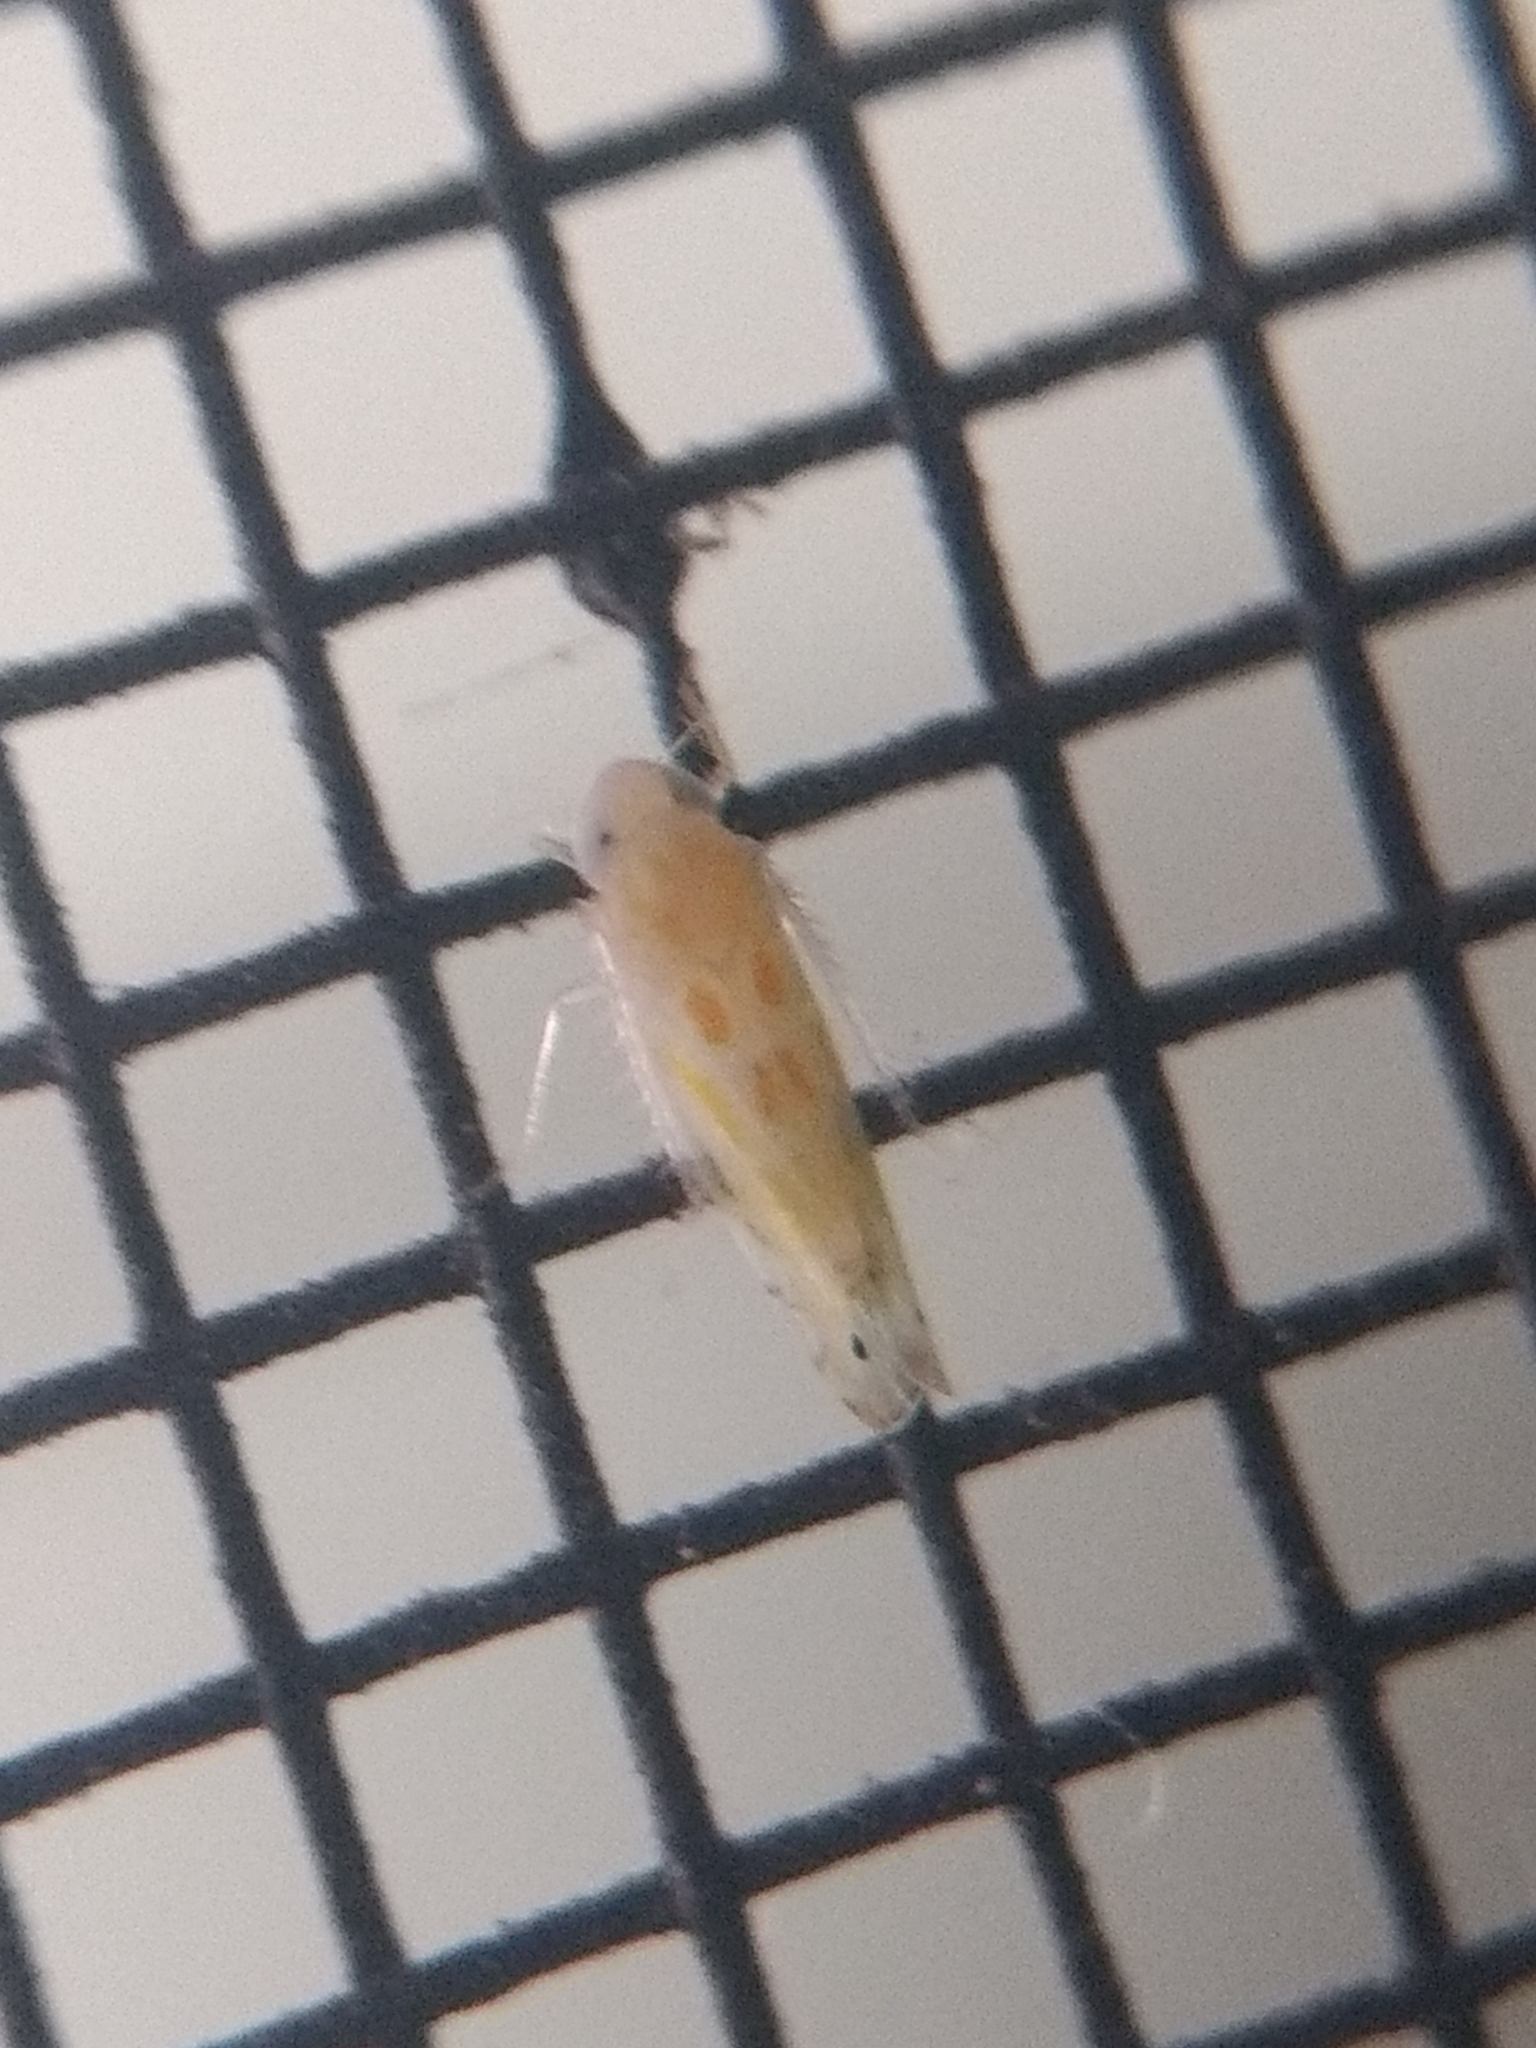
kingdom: Animalia
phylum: Arthropoda
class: Insecta
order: Hemiptera
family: Cicadellidae
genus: Alconeura
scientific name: Alconeura quadrimaculata
